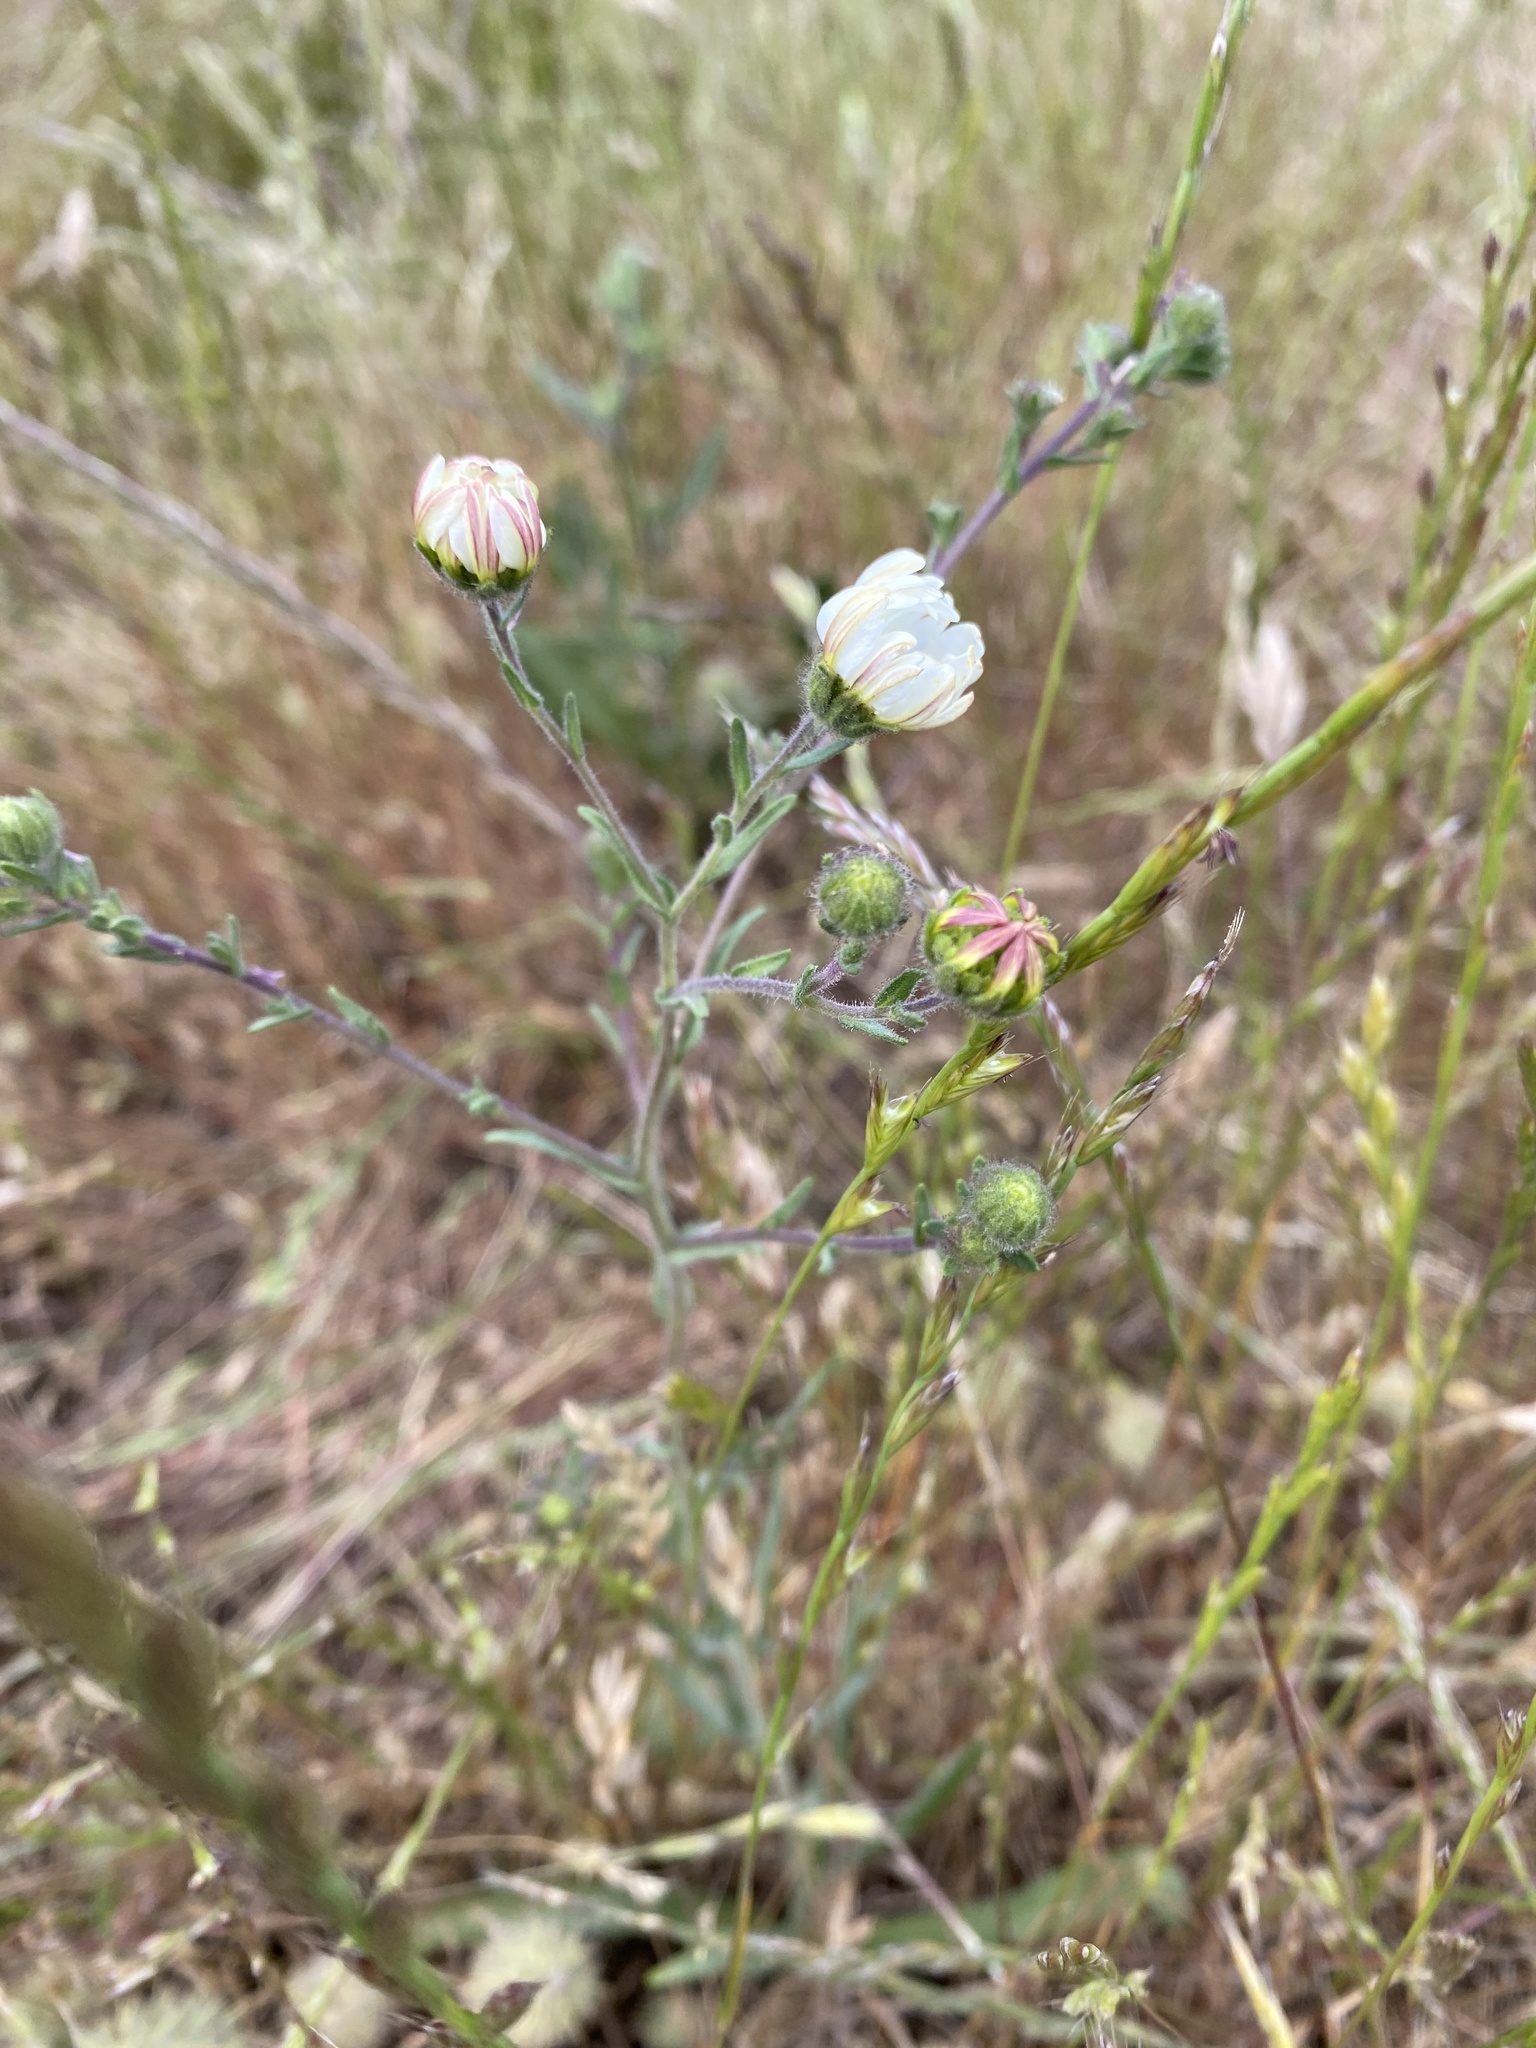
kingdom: Plantae
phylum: Tracheophyta
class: Magnoliopsida
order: Asterales
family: Asteraceae
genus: Hemizonia
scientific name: Hemizonia congesta
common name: Hayfield tarweed
